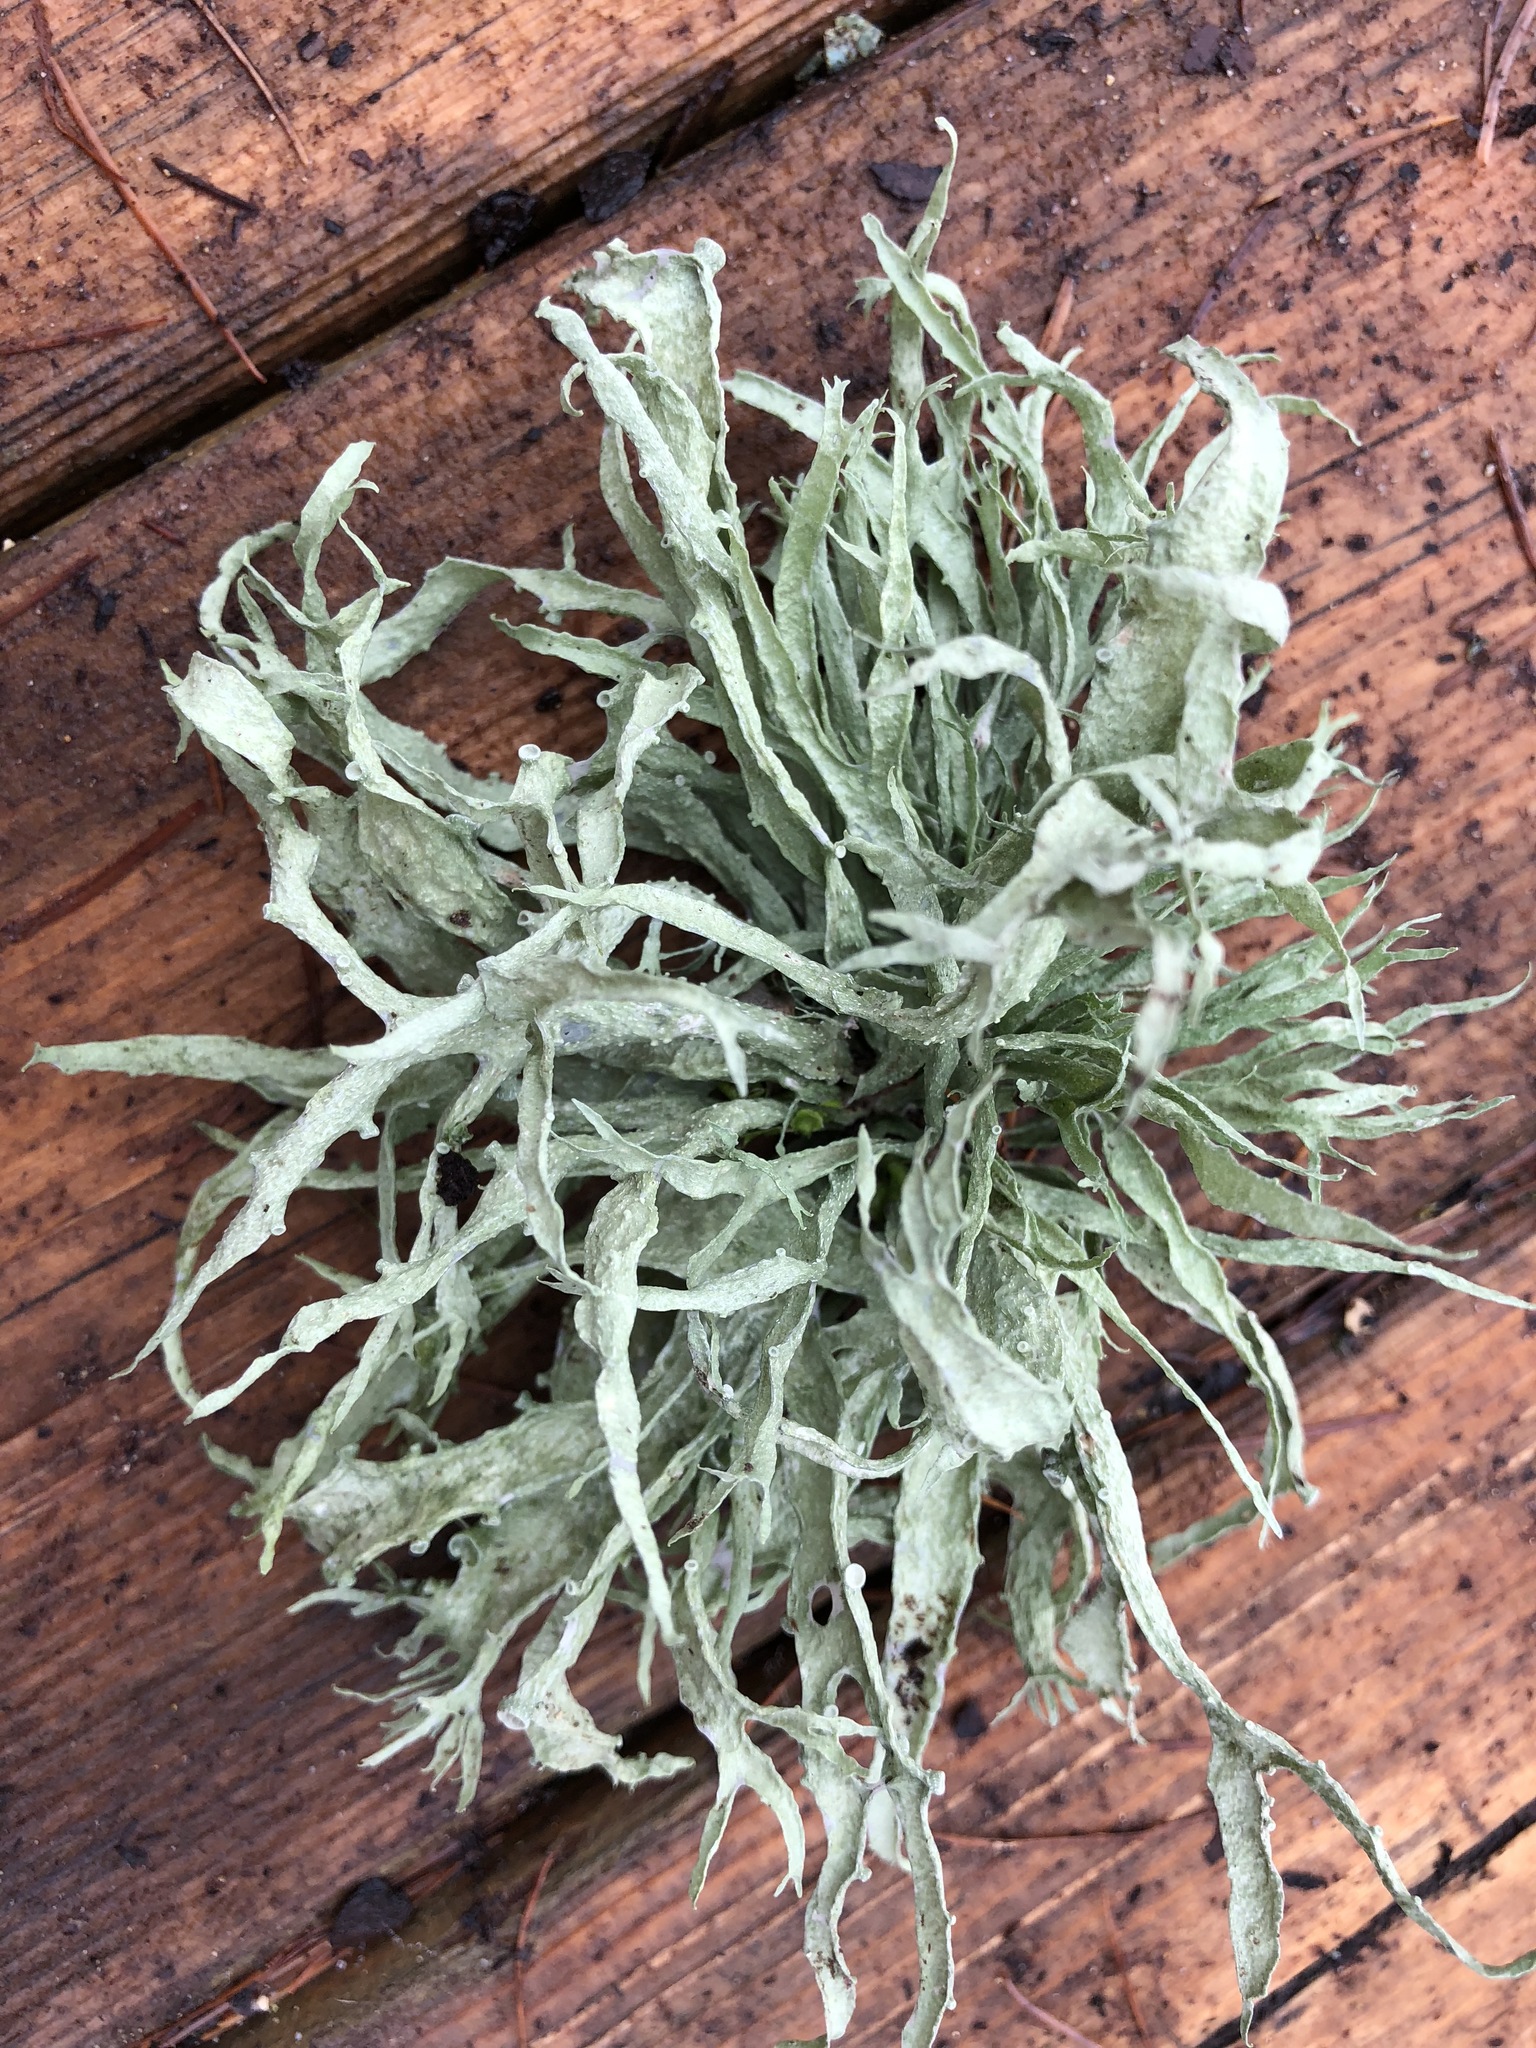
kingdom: Fungi
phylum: Ascomycota
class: Lecanoromycetes
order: Lecanorales
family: Ramalinaceae
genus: Ramalina
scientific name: Ramalina fraxinea
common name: Cartilage lichen
